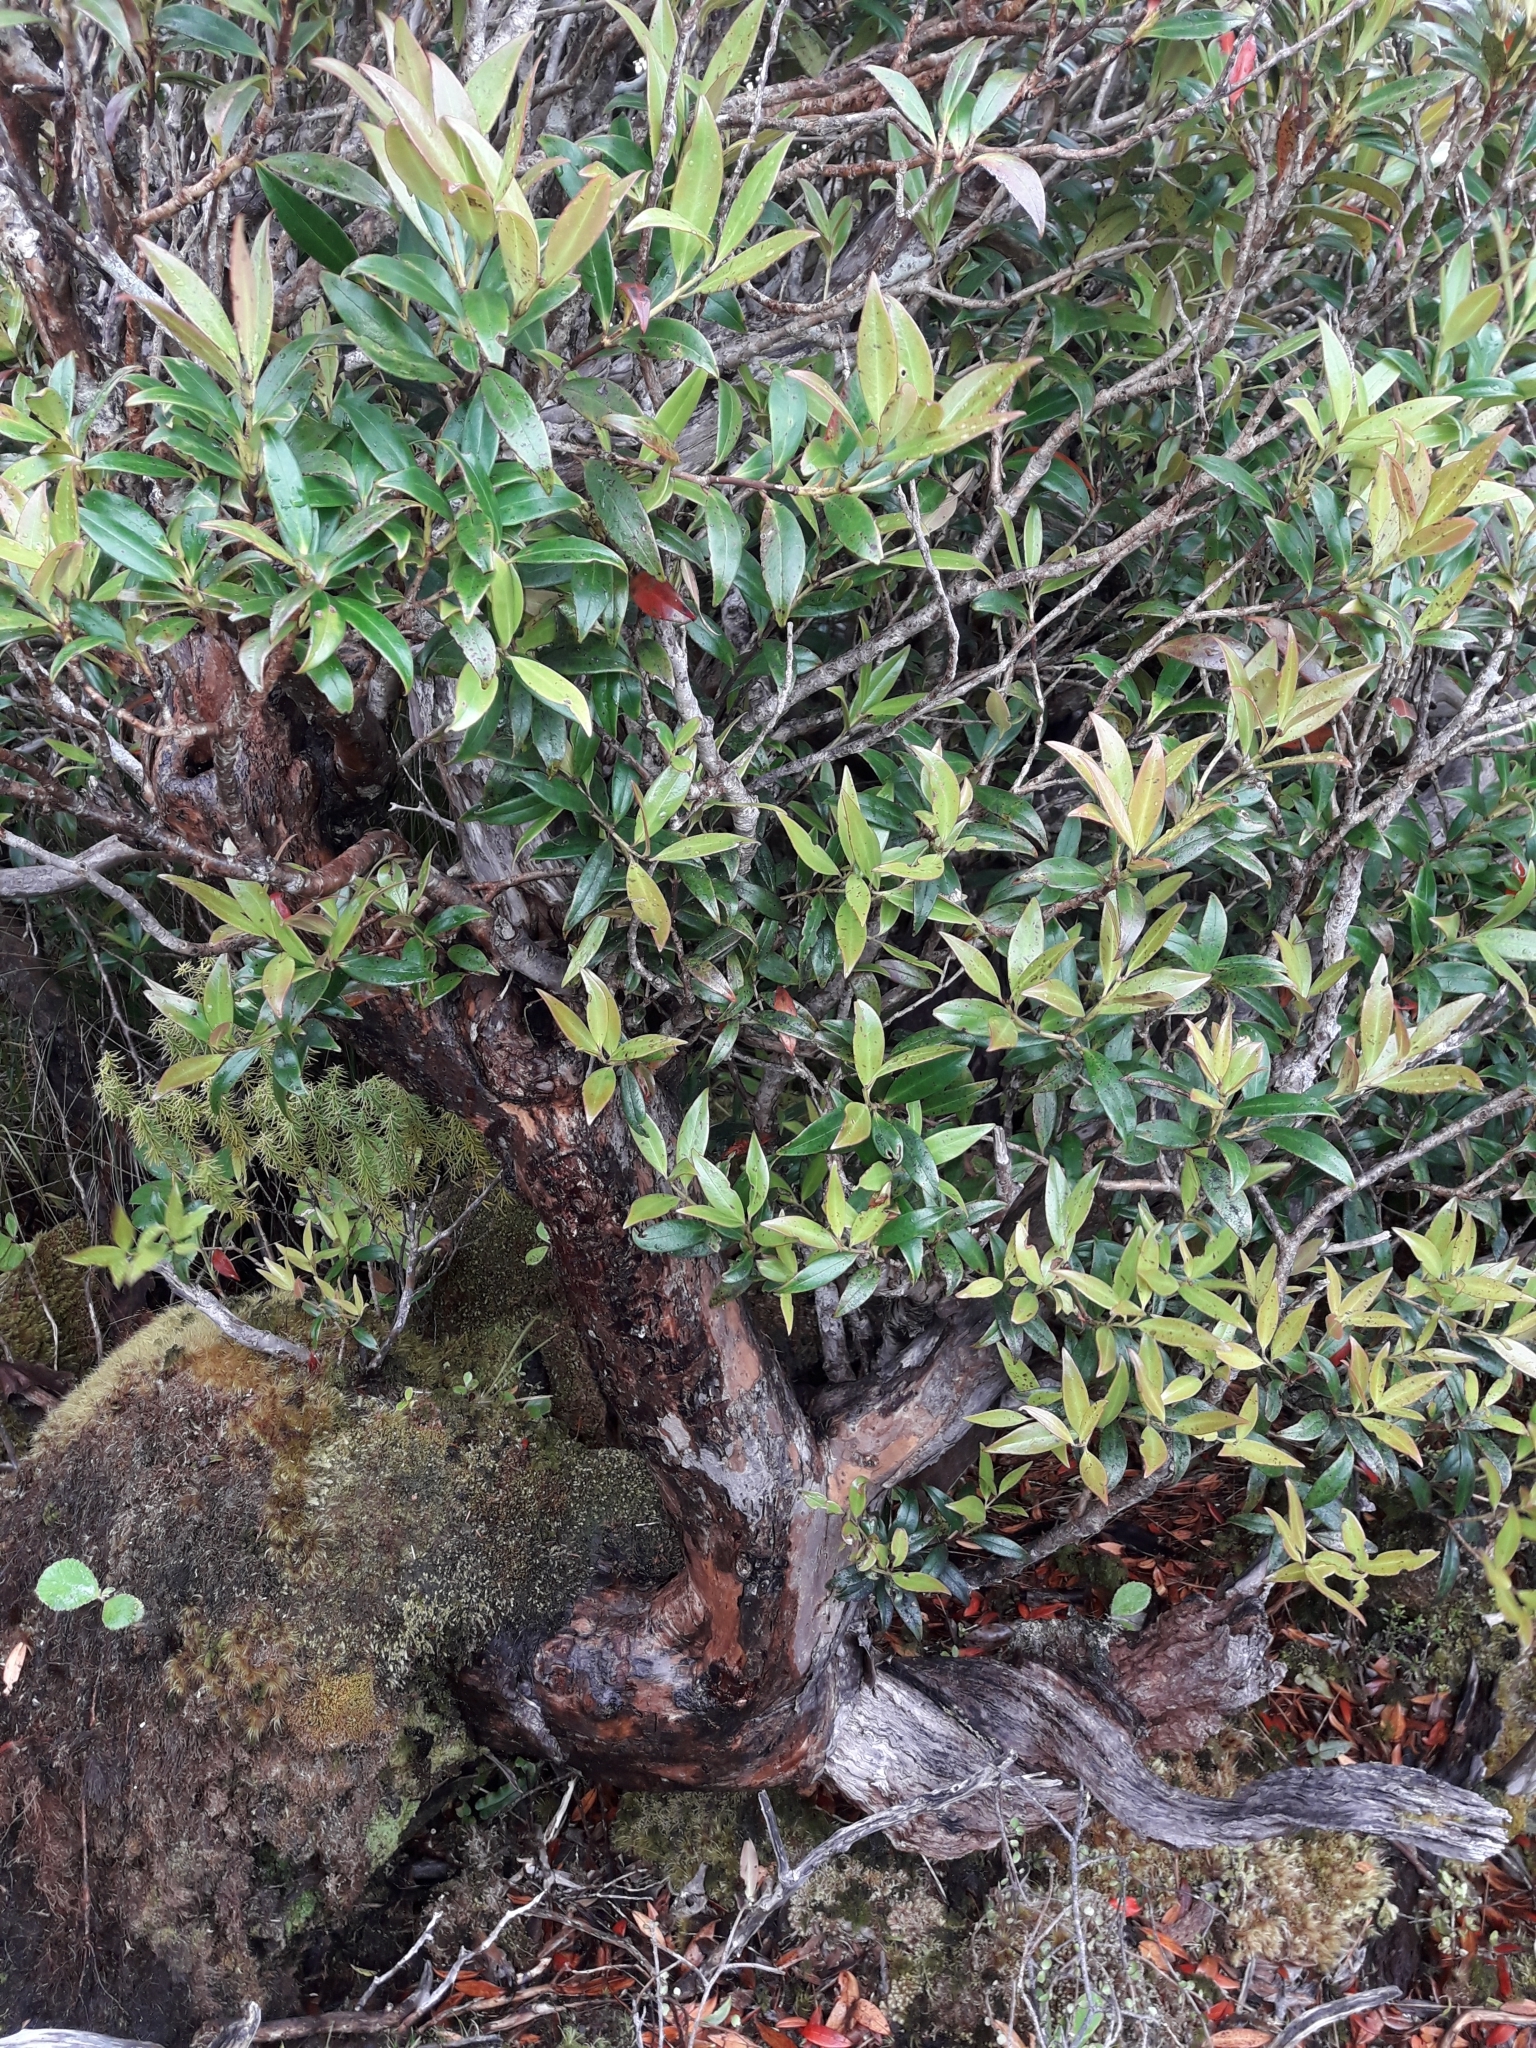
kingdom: Plantae
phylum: Tracheophyta
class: Magnoliopsida
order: Myrtales
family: Myrtaceae
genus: Metrosideros
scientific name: Metrosideros umbellata
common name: Southern rata
